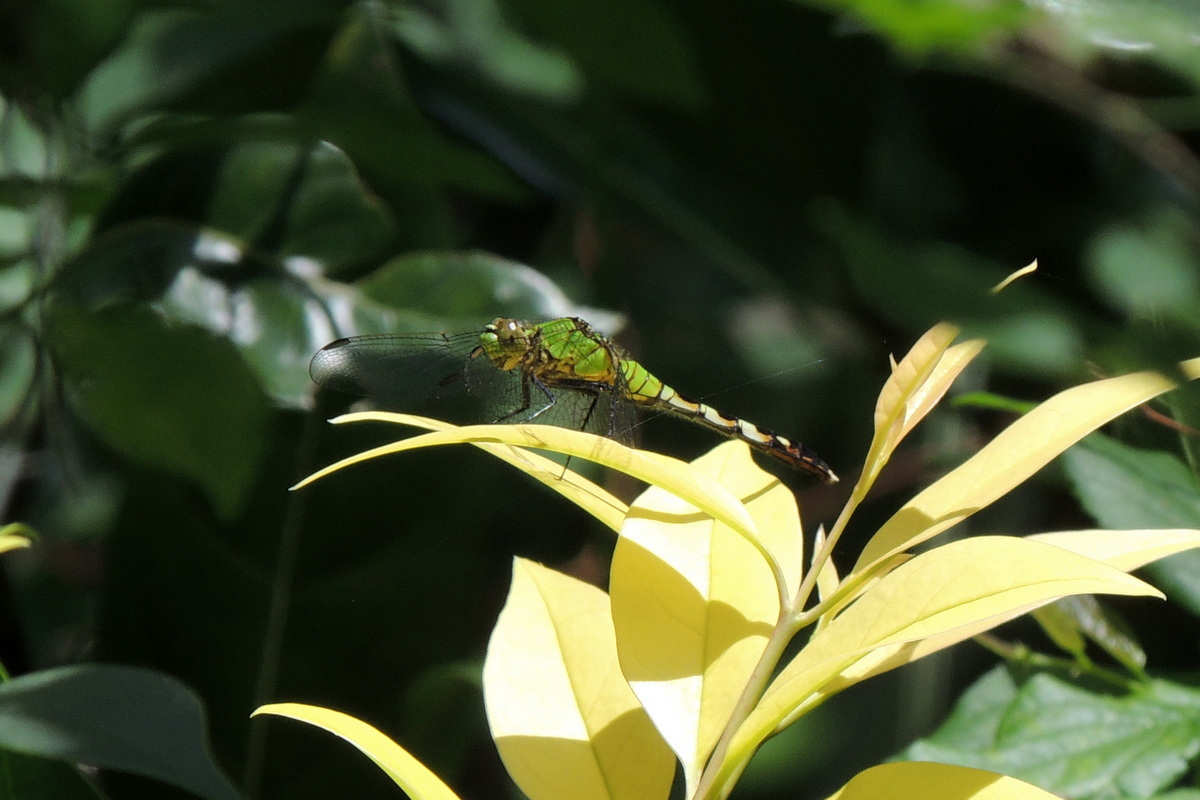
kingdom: Animalia
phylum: Arthropoda
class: Insecta
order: Odonata
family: Libellulidae
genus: Erythemis
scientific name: Erythemis simplicicollis
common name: Eastern pondhawk
